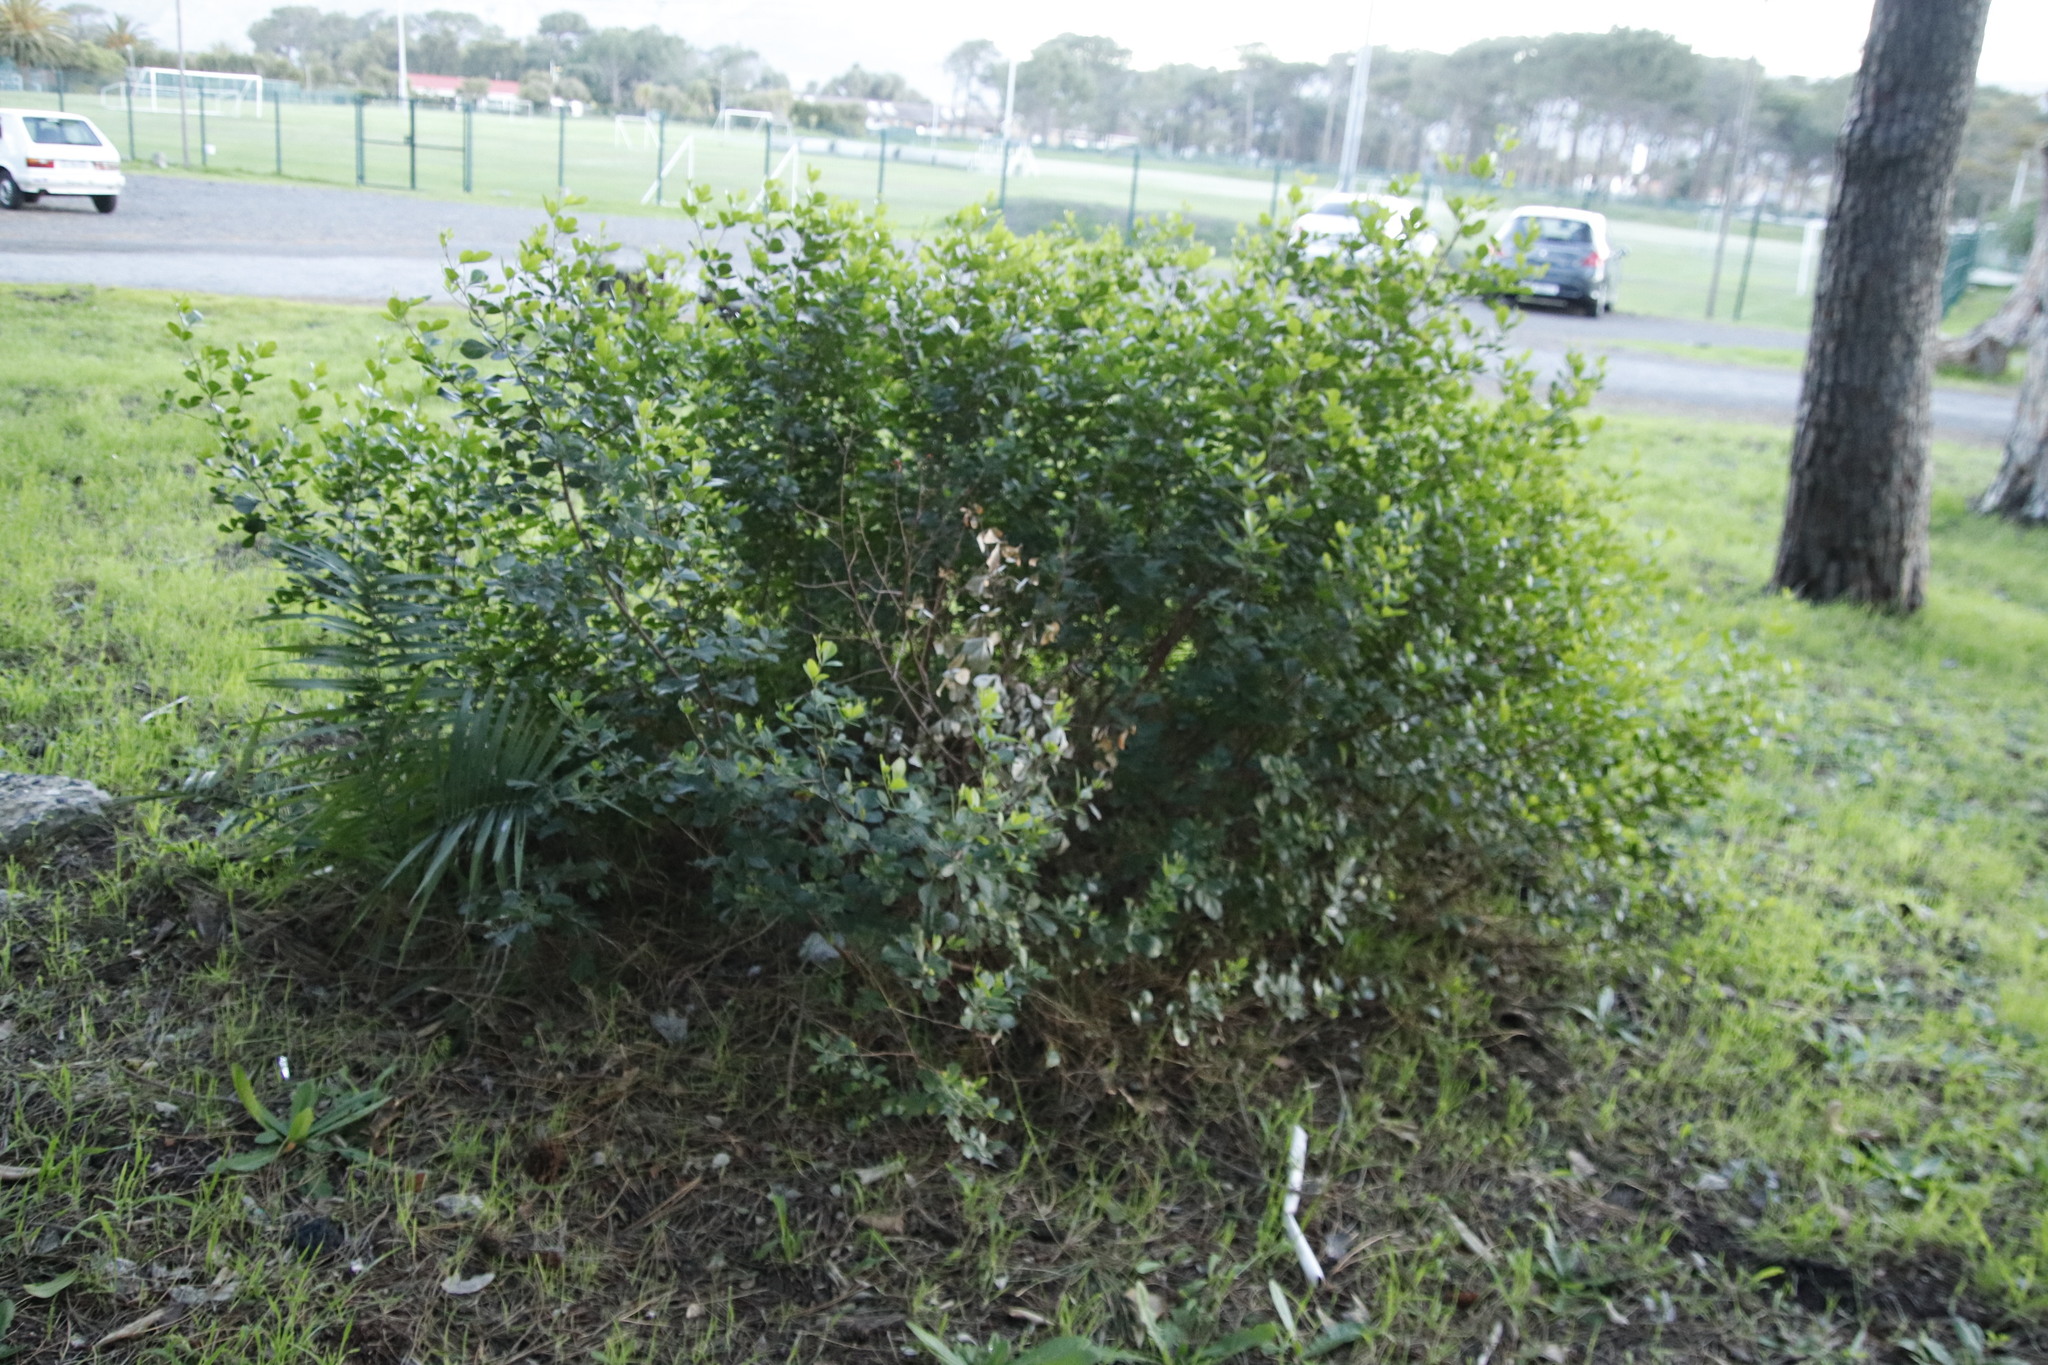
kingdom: Plantae
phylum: Tracheophyta
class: Magnoliopsida
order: Sapindales
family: Anacardiaceae
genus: Searsia
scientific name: Searsia lucida
